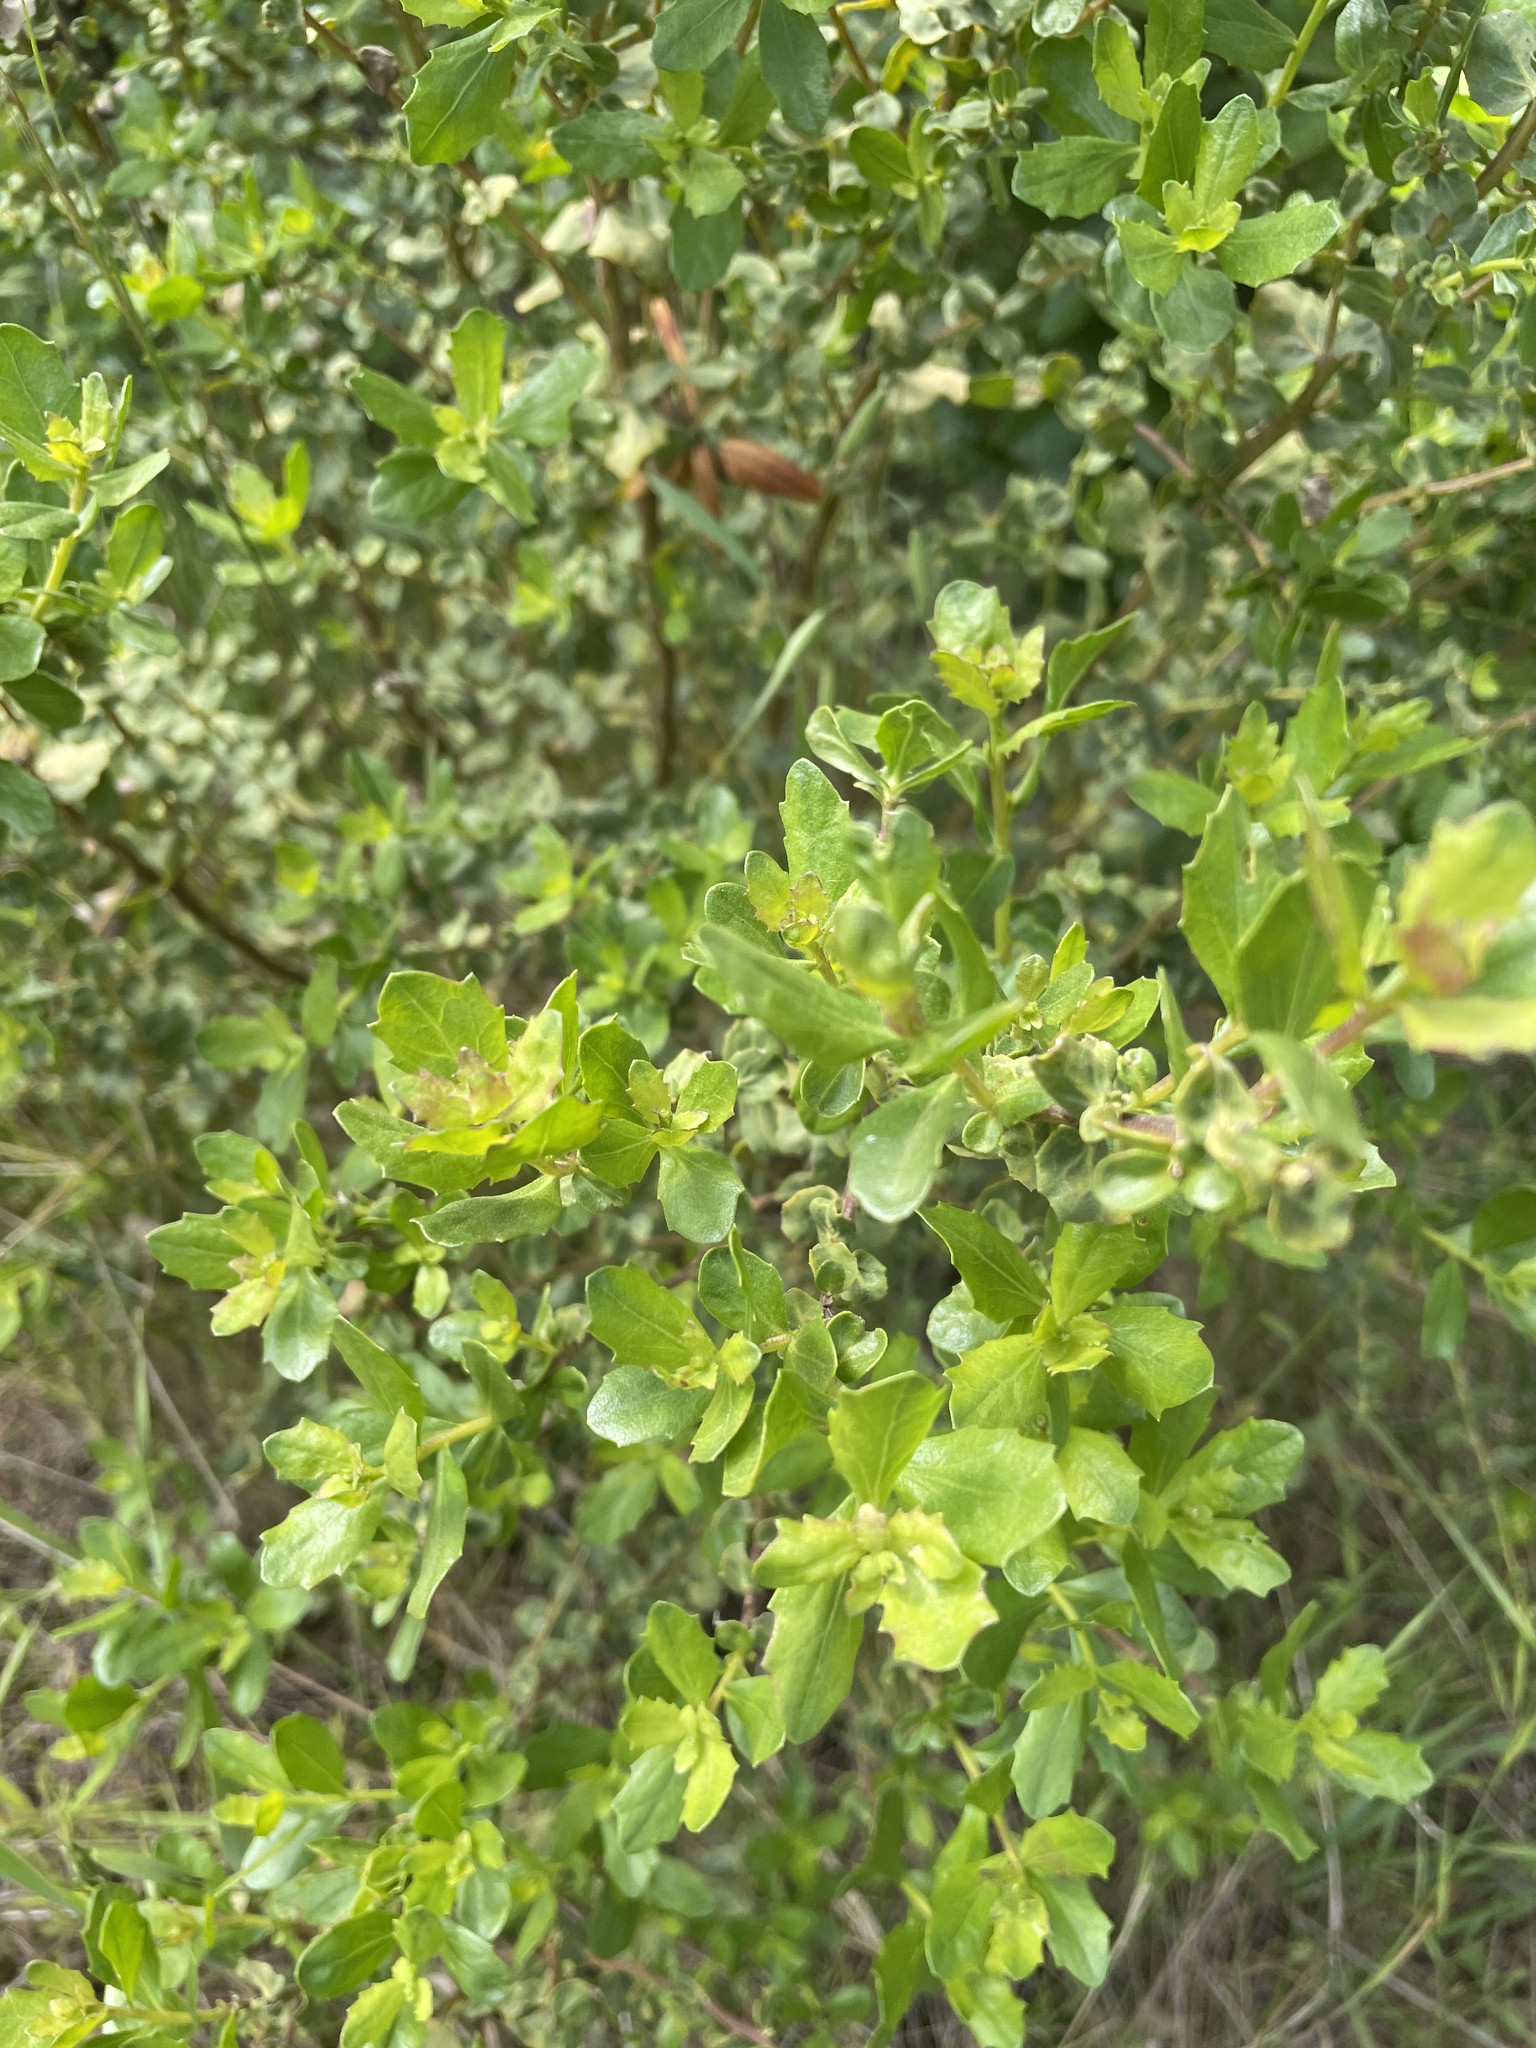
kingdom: Plantae
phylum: Tracheophyta
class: Magnoliopsida
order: Asterales
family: Asteraceae
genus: Baccharis
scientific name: Baccharis pilularis
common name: Coyotebrush
